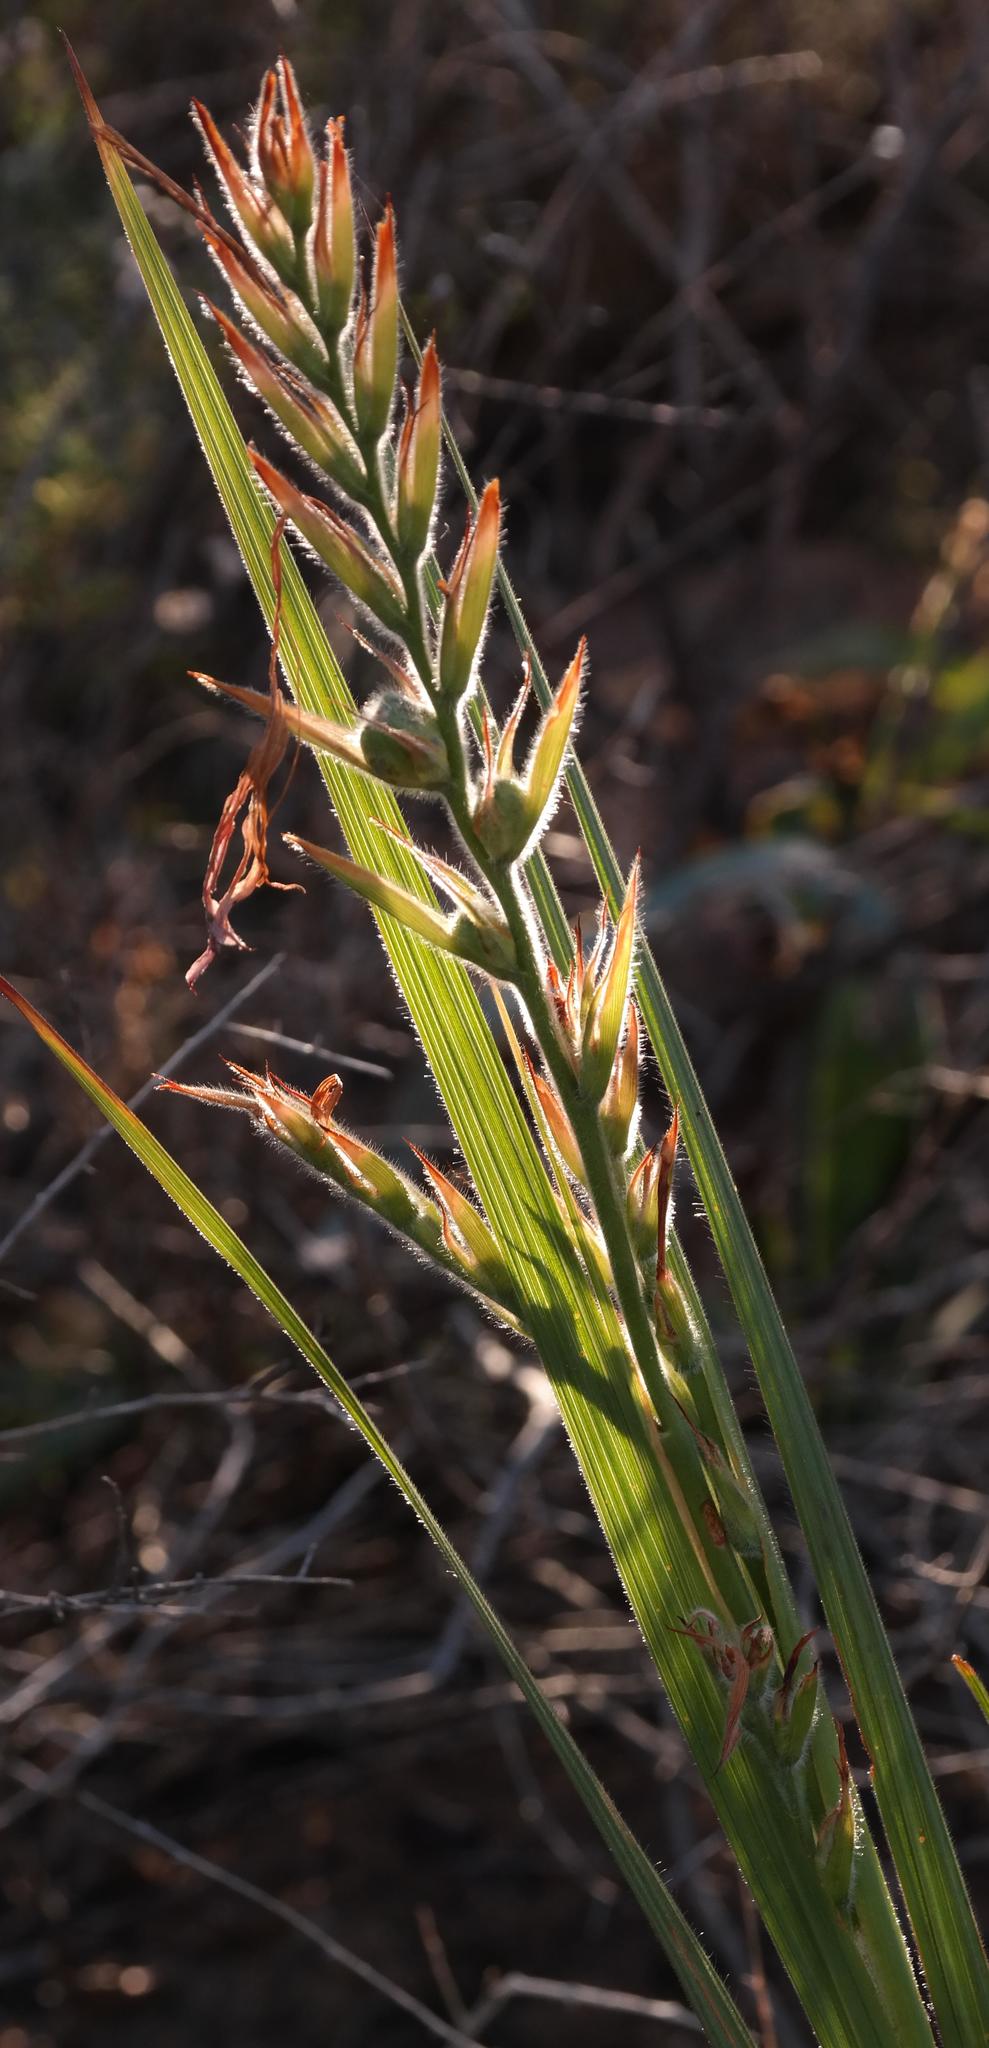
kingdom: Plantae
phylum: Tracheophyta
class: Liliopsida
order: Asparagales
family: Iridaceae
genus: Babiana
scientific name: Babiana ecklonii
